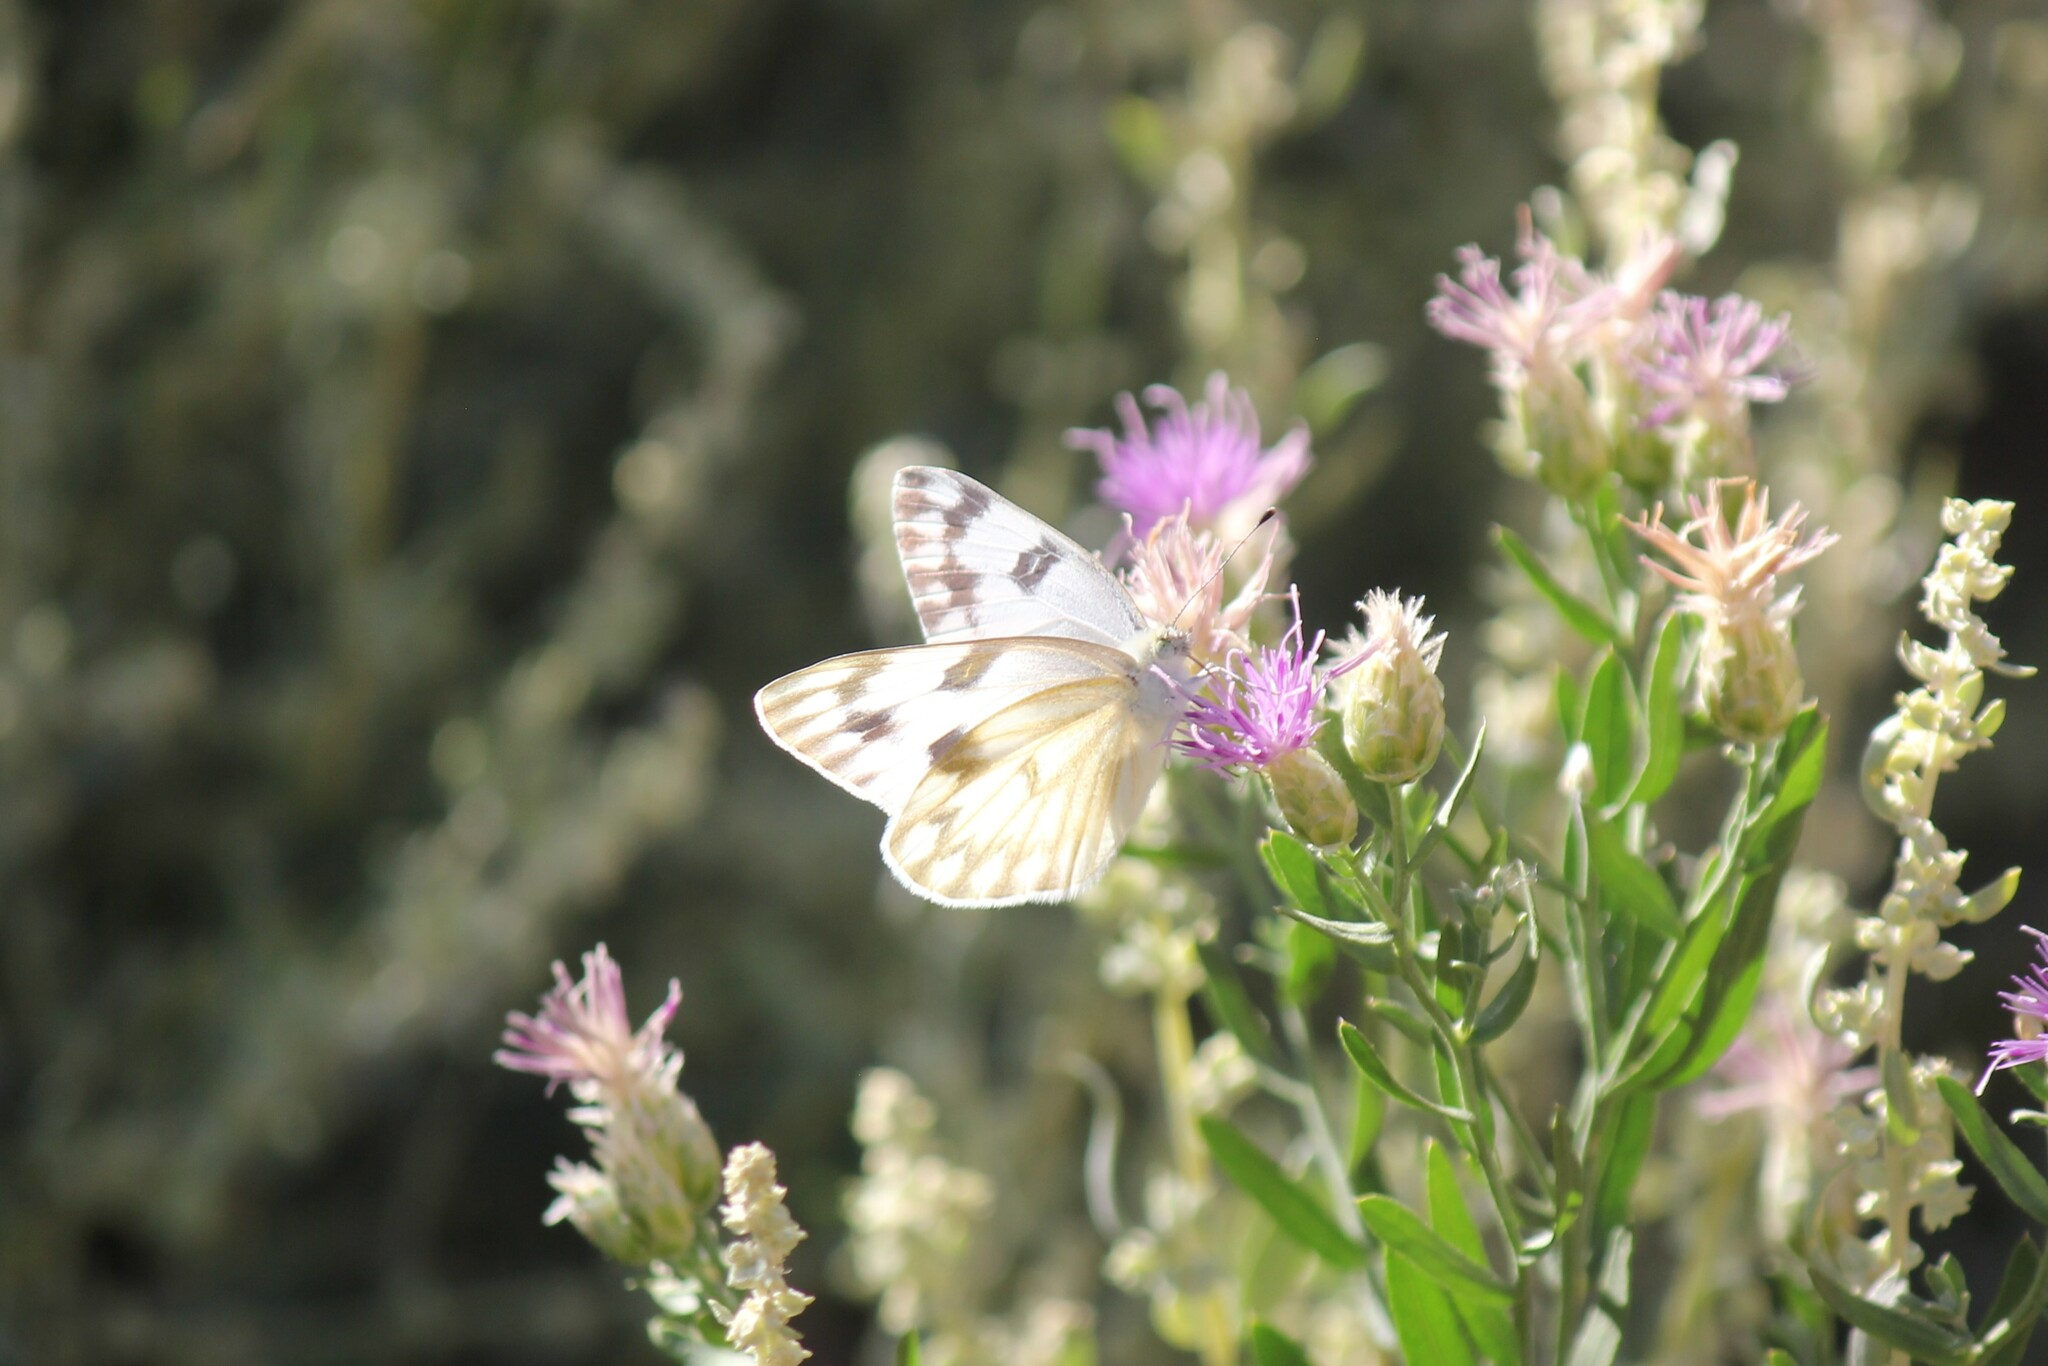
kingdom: Animalia
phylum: Arthropoda
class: Insecta
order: Lepidoptera
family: Pieridae
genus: Pontia
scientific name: Pontia protodice
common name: Checkered white
